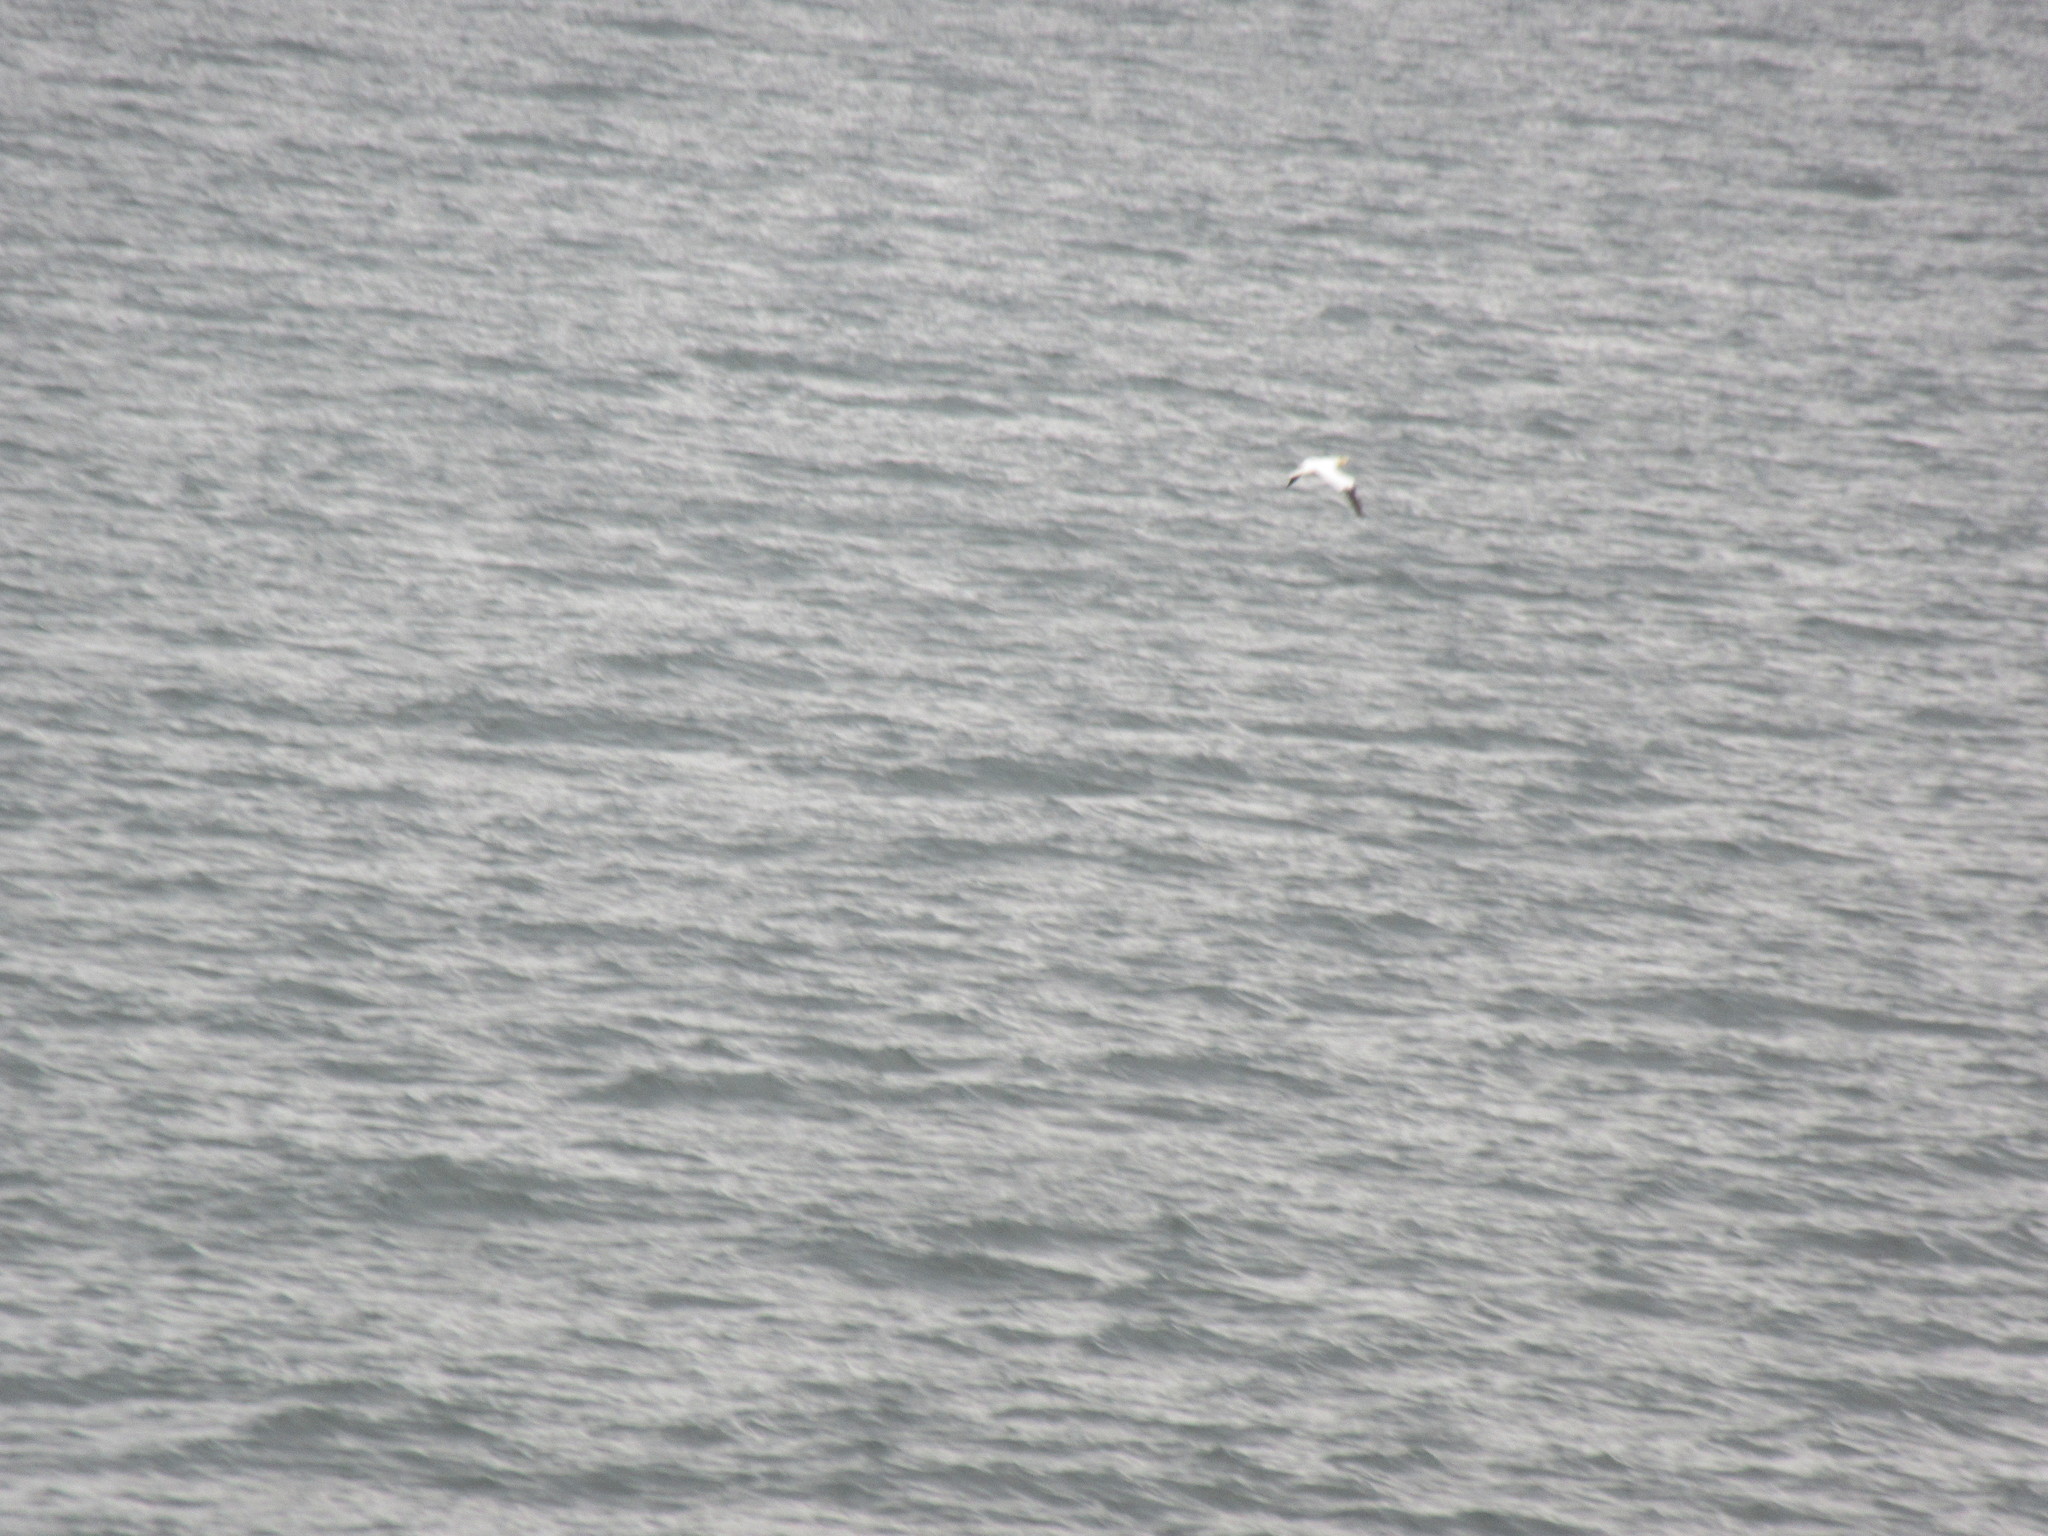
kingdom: Animalia
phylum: Chordata
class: Aves
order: Suliformes
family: Sulidae
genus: Morus
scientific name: Morus bassanus
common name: Northern gannet
